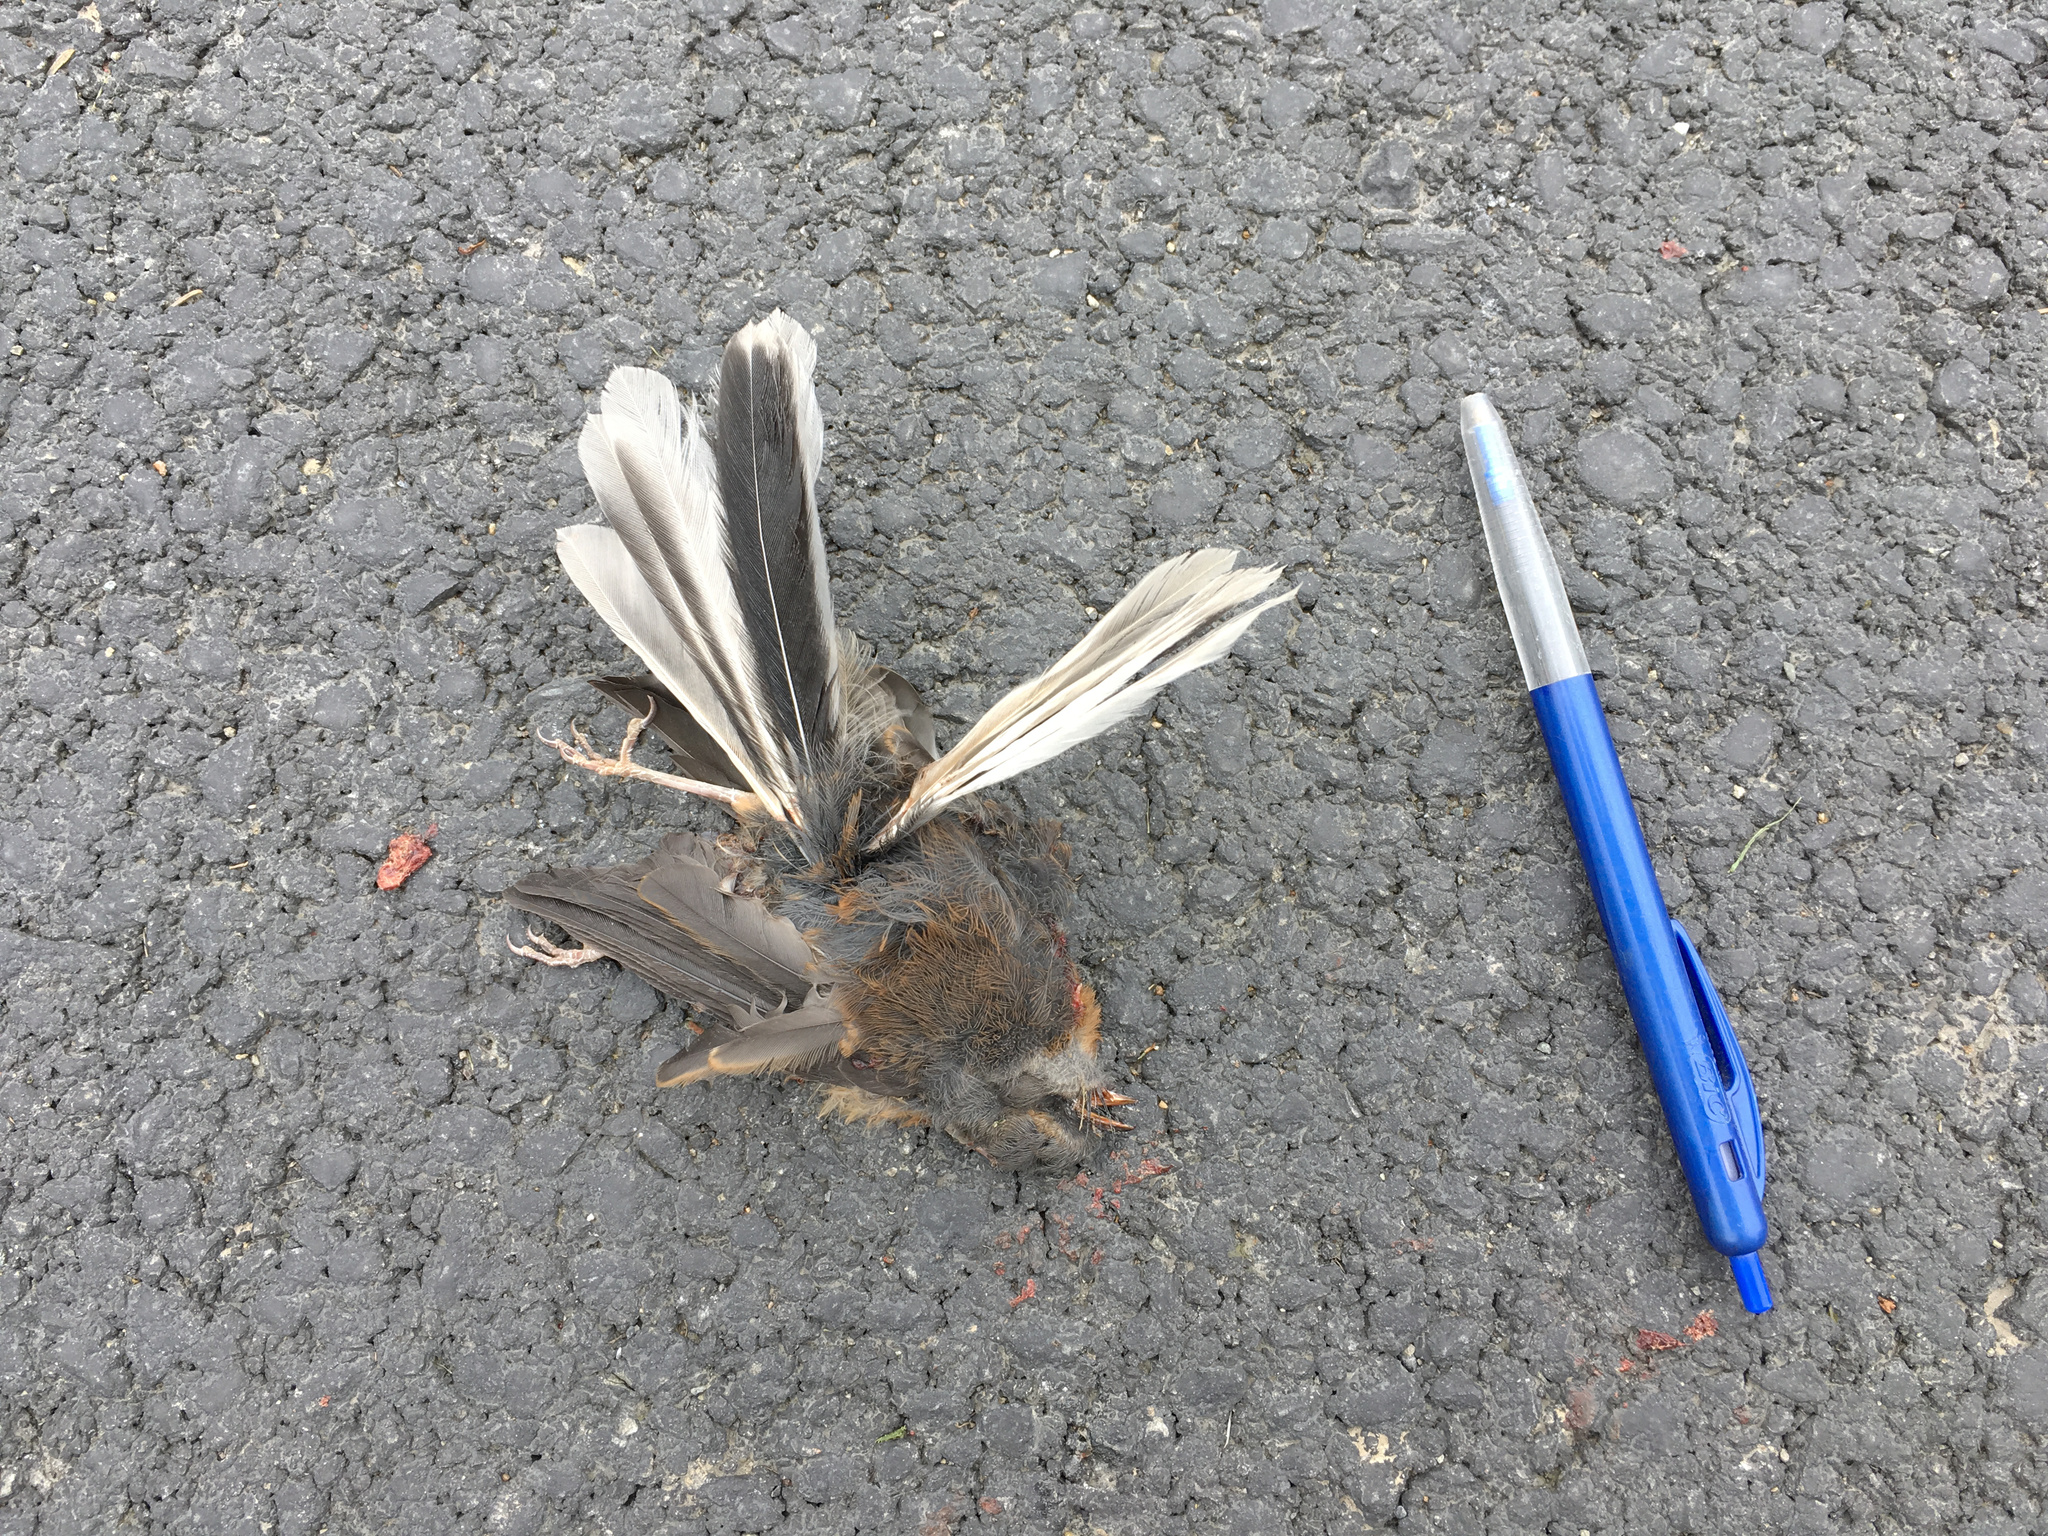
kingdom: Animalia
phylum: Chordata
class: Aves
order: Passeriformes
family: Rhipiduridae
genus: Rhipidura
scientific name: Rhipidura fuliginosa
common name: New zealand fantail
